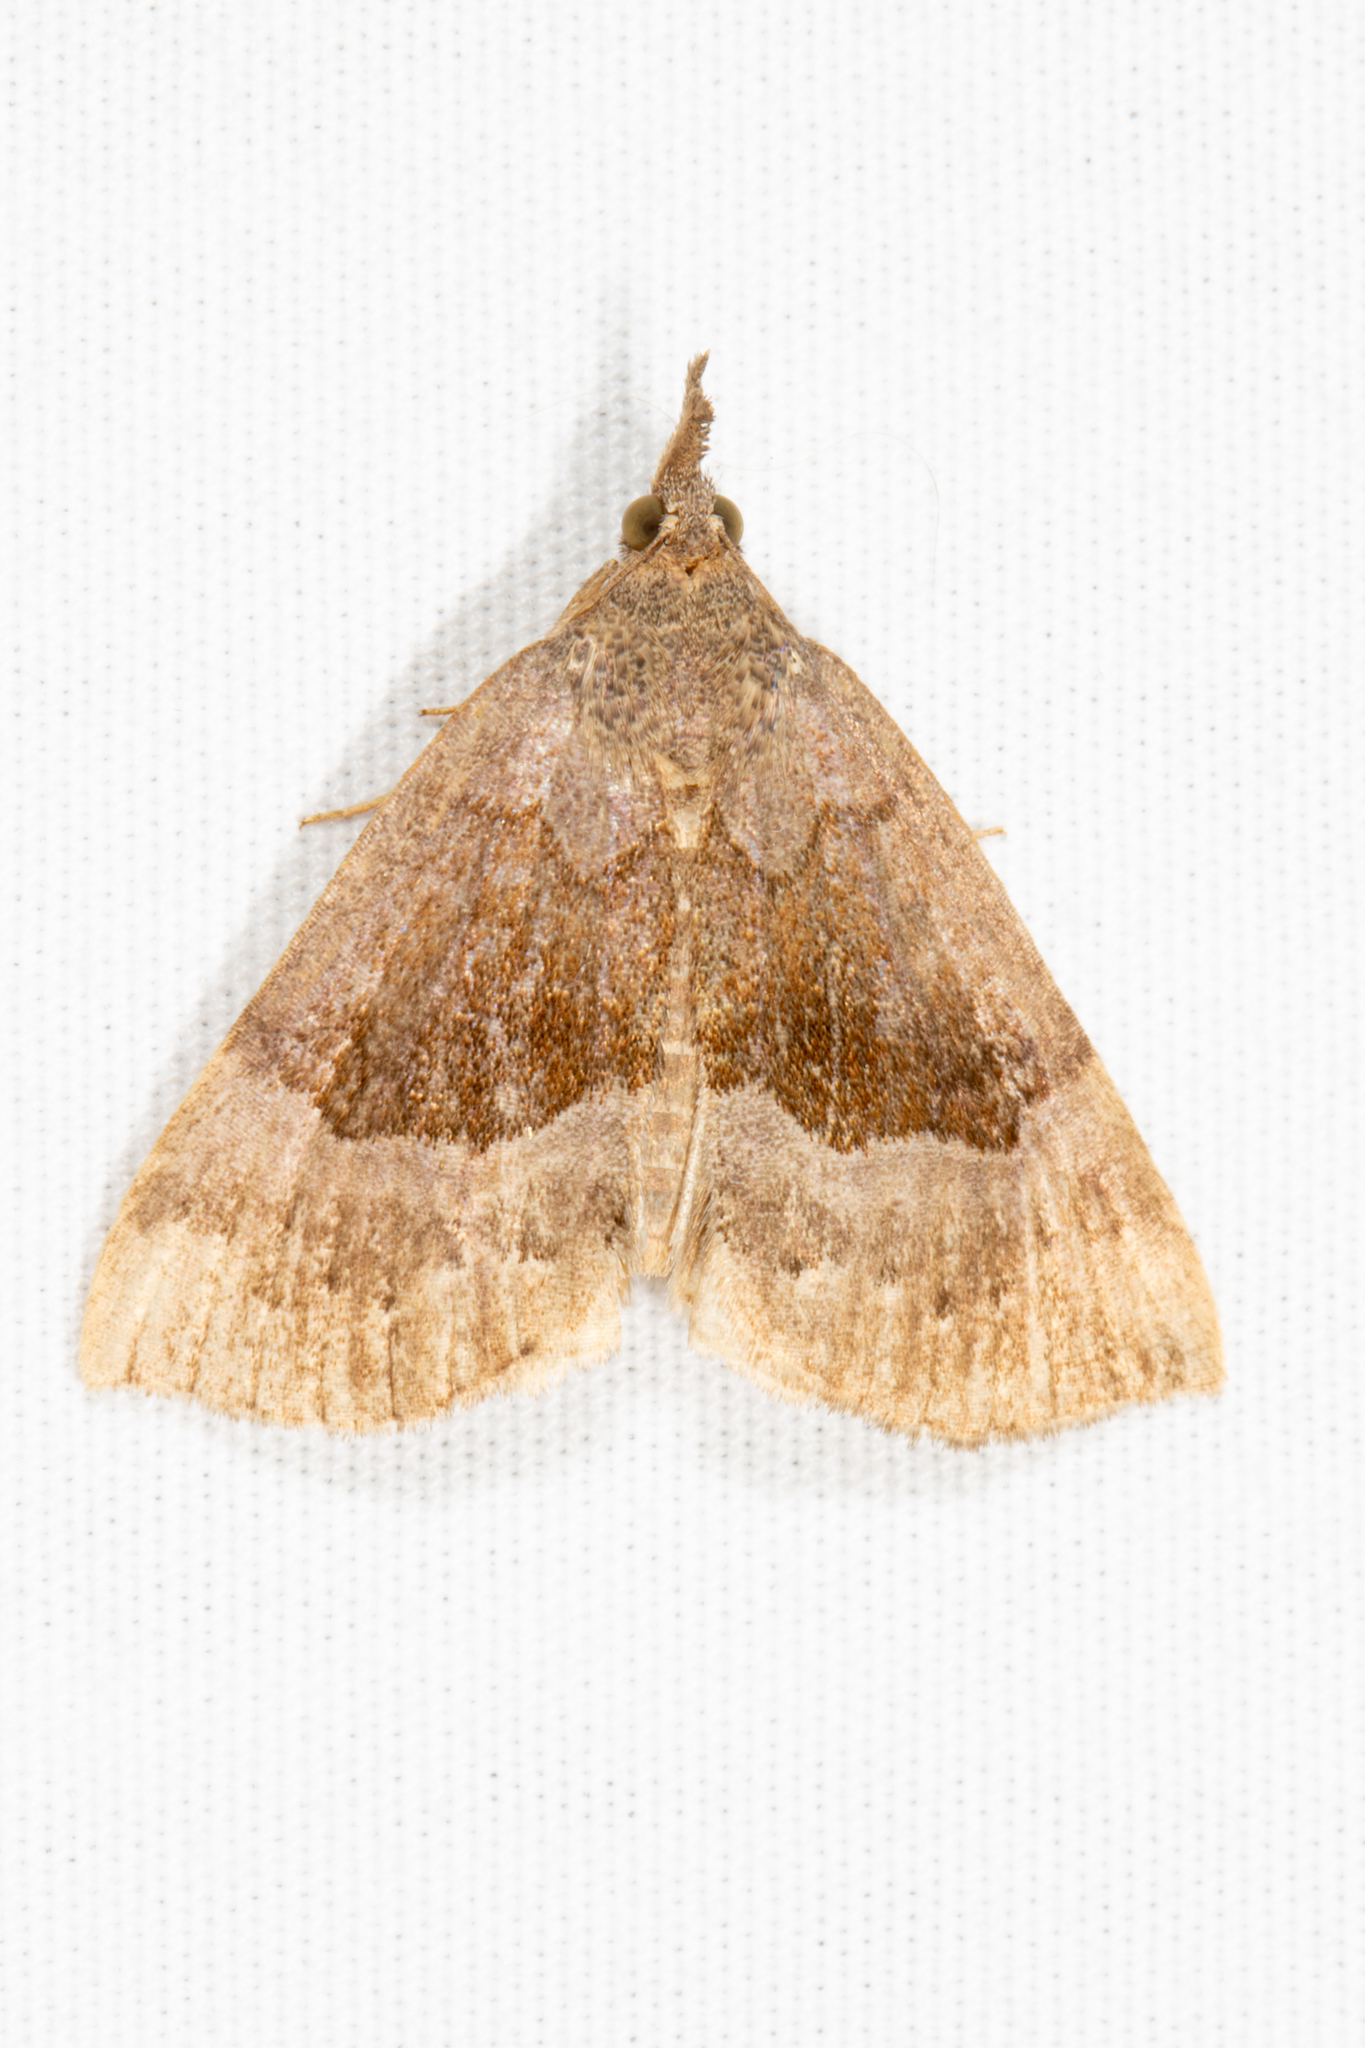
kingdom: Animalia
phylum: Arthropoda
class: Insecta
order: Lepidoptera
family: Erebidae
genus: Hypena
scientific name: Hypena madefactalis
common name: Gray-edged snout
